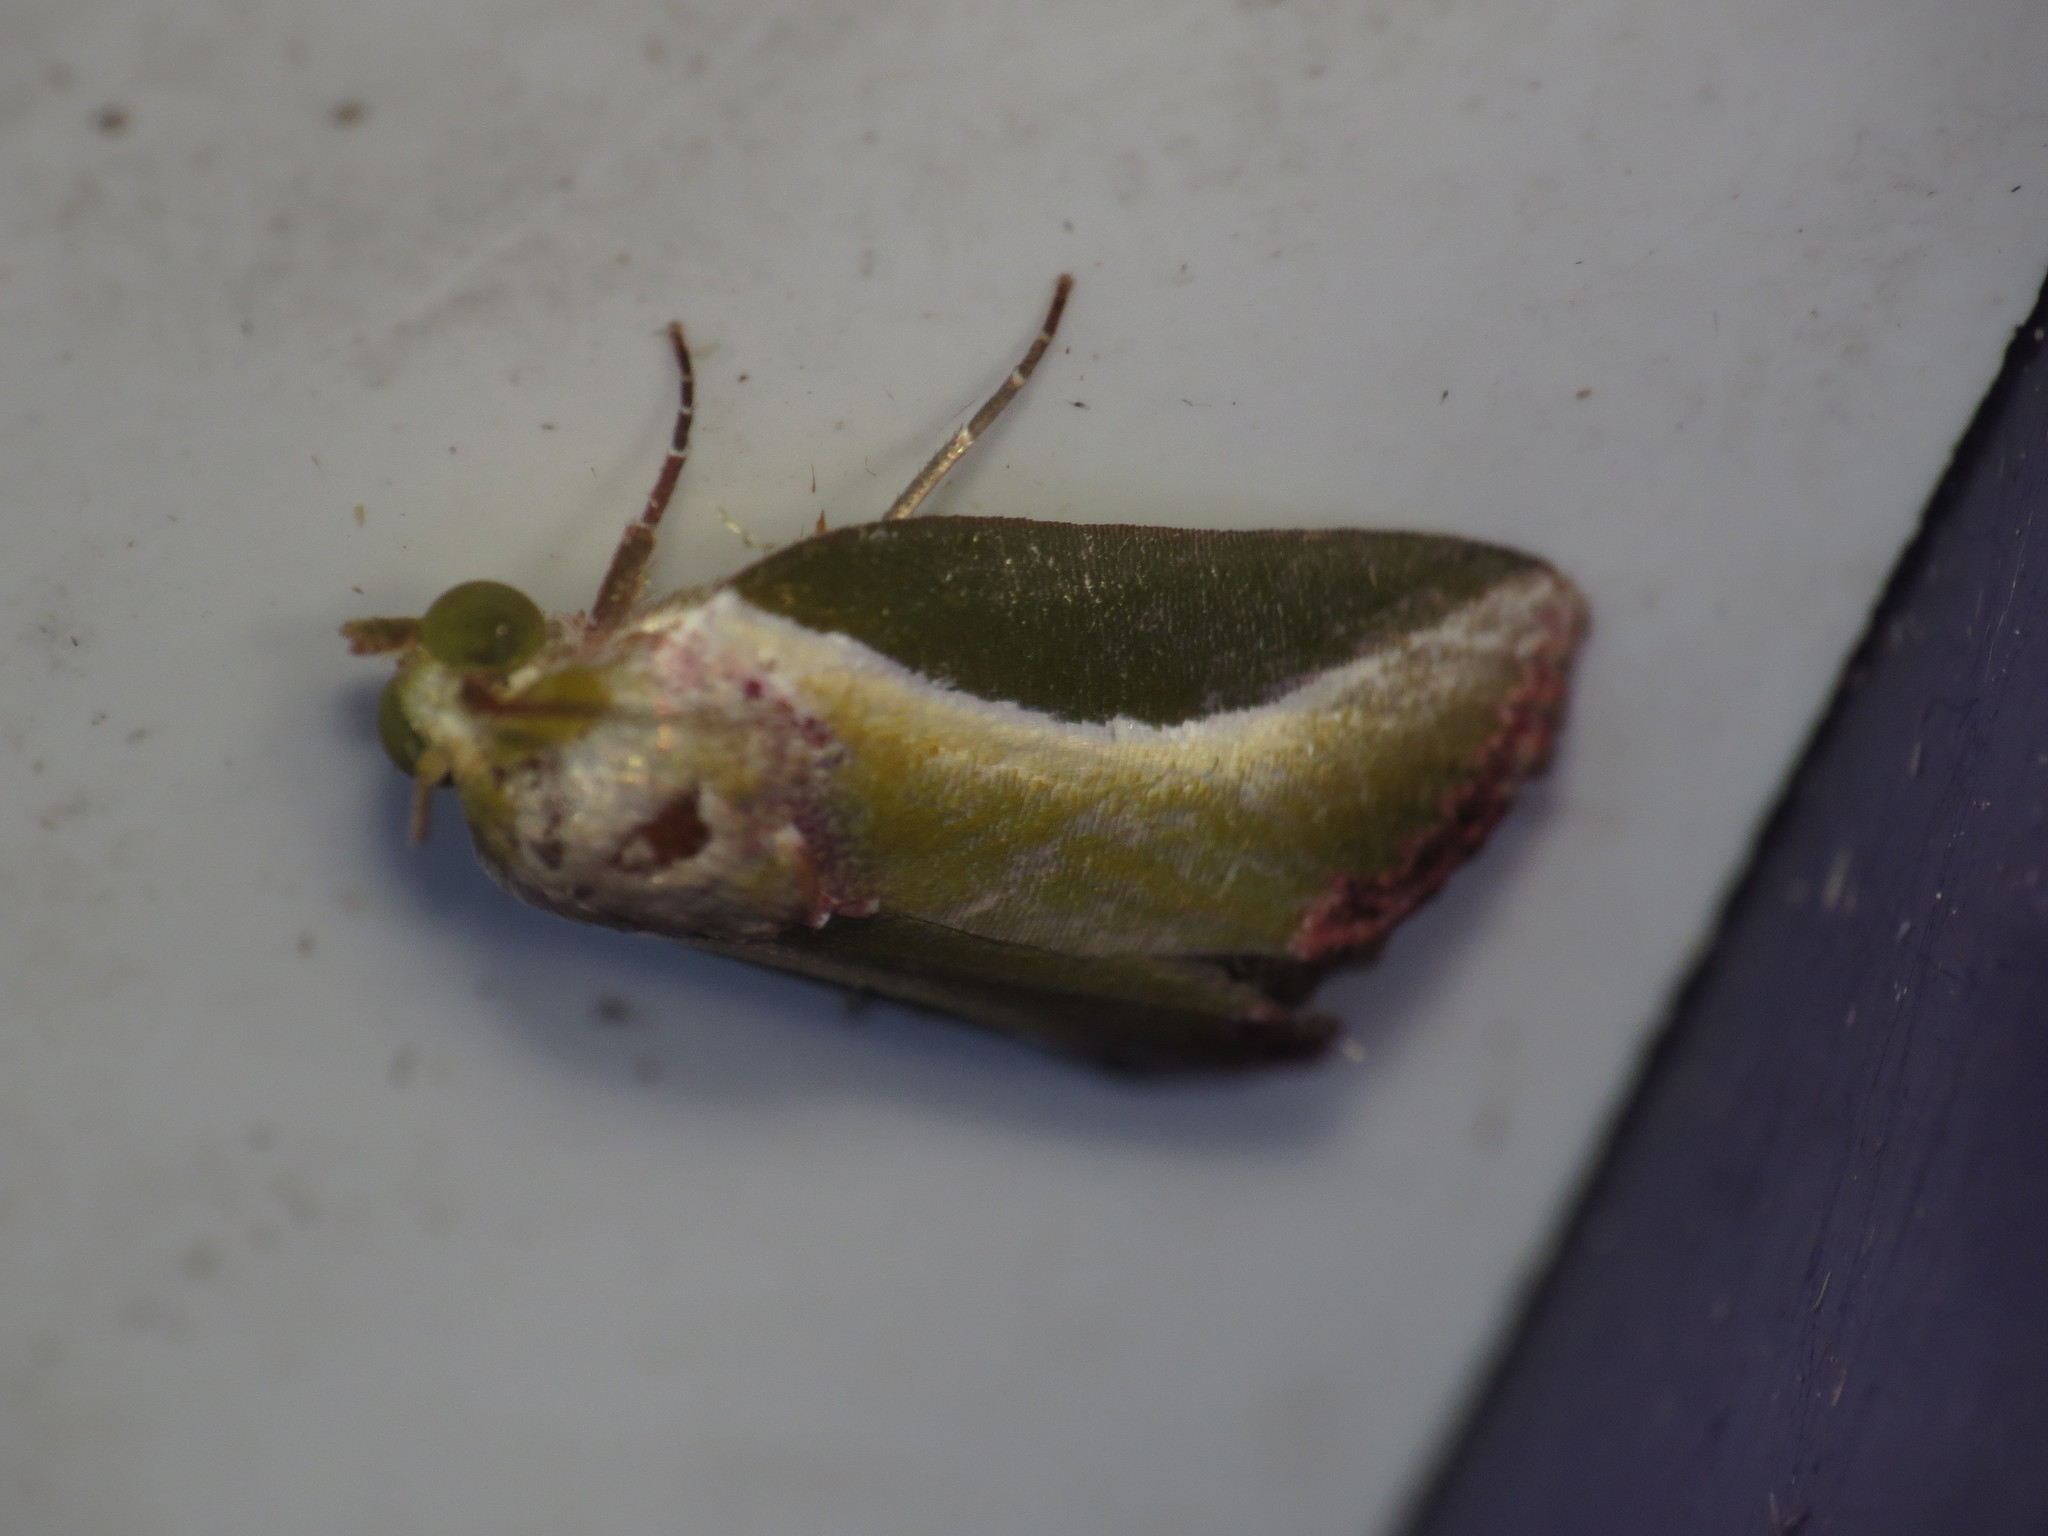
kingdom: Animalia
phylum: Arthropoda
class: Insecta
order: Lepidoptera
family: Nolidae
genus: Ariola
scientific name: Ariola coelisigna
